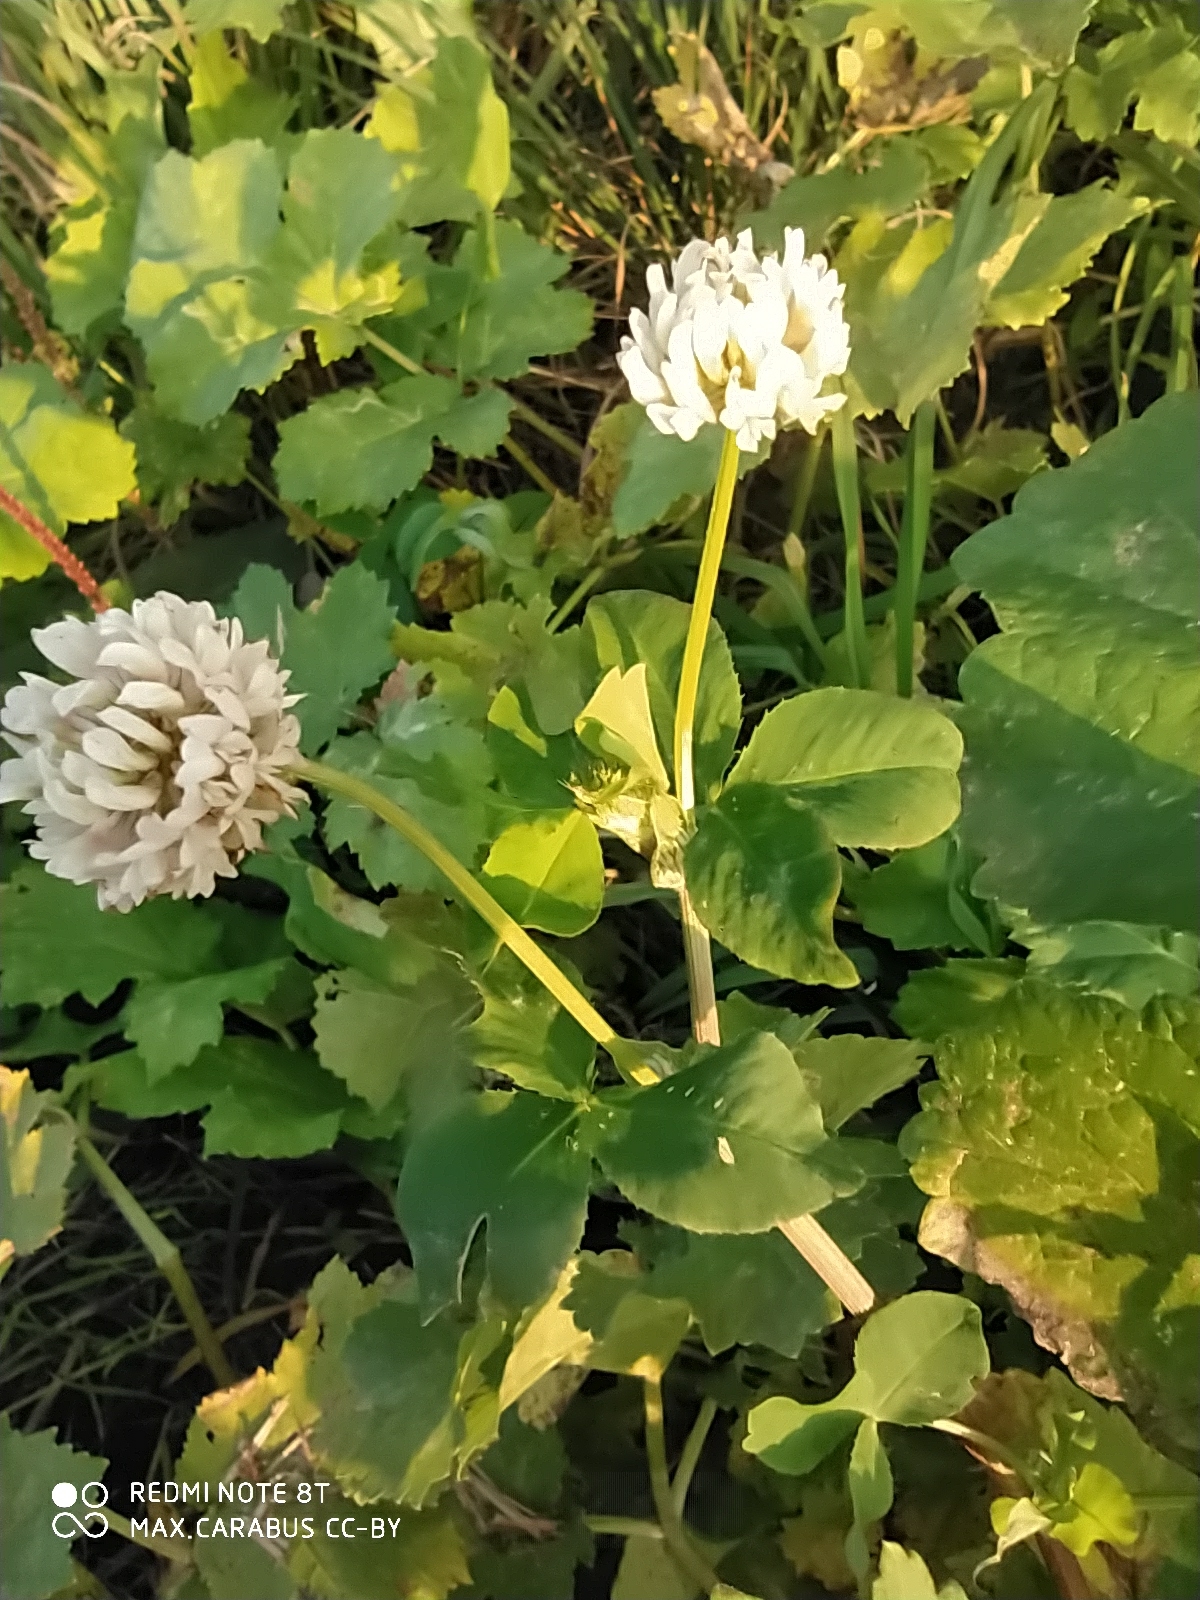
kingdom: Plantae
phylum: Tracheophyta
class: Magnoliopsida
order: Fabales
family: Fabaceae
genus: Trifolium
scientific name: Trifolium hybridum
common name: Alsike clover
